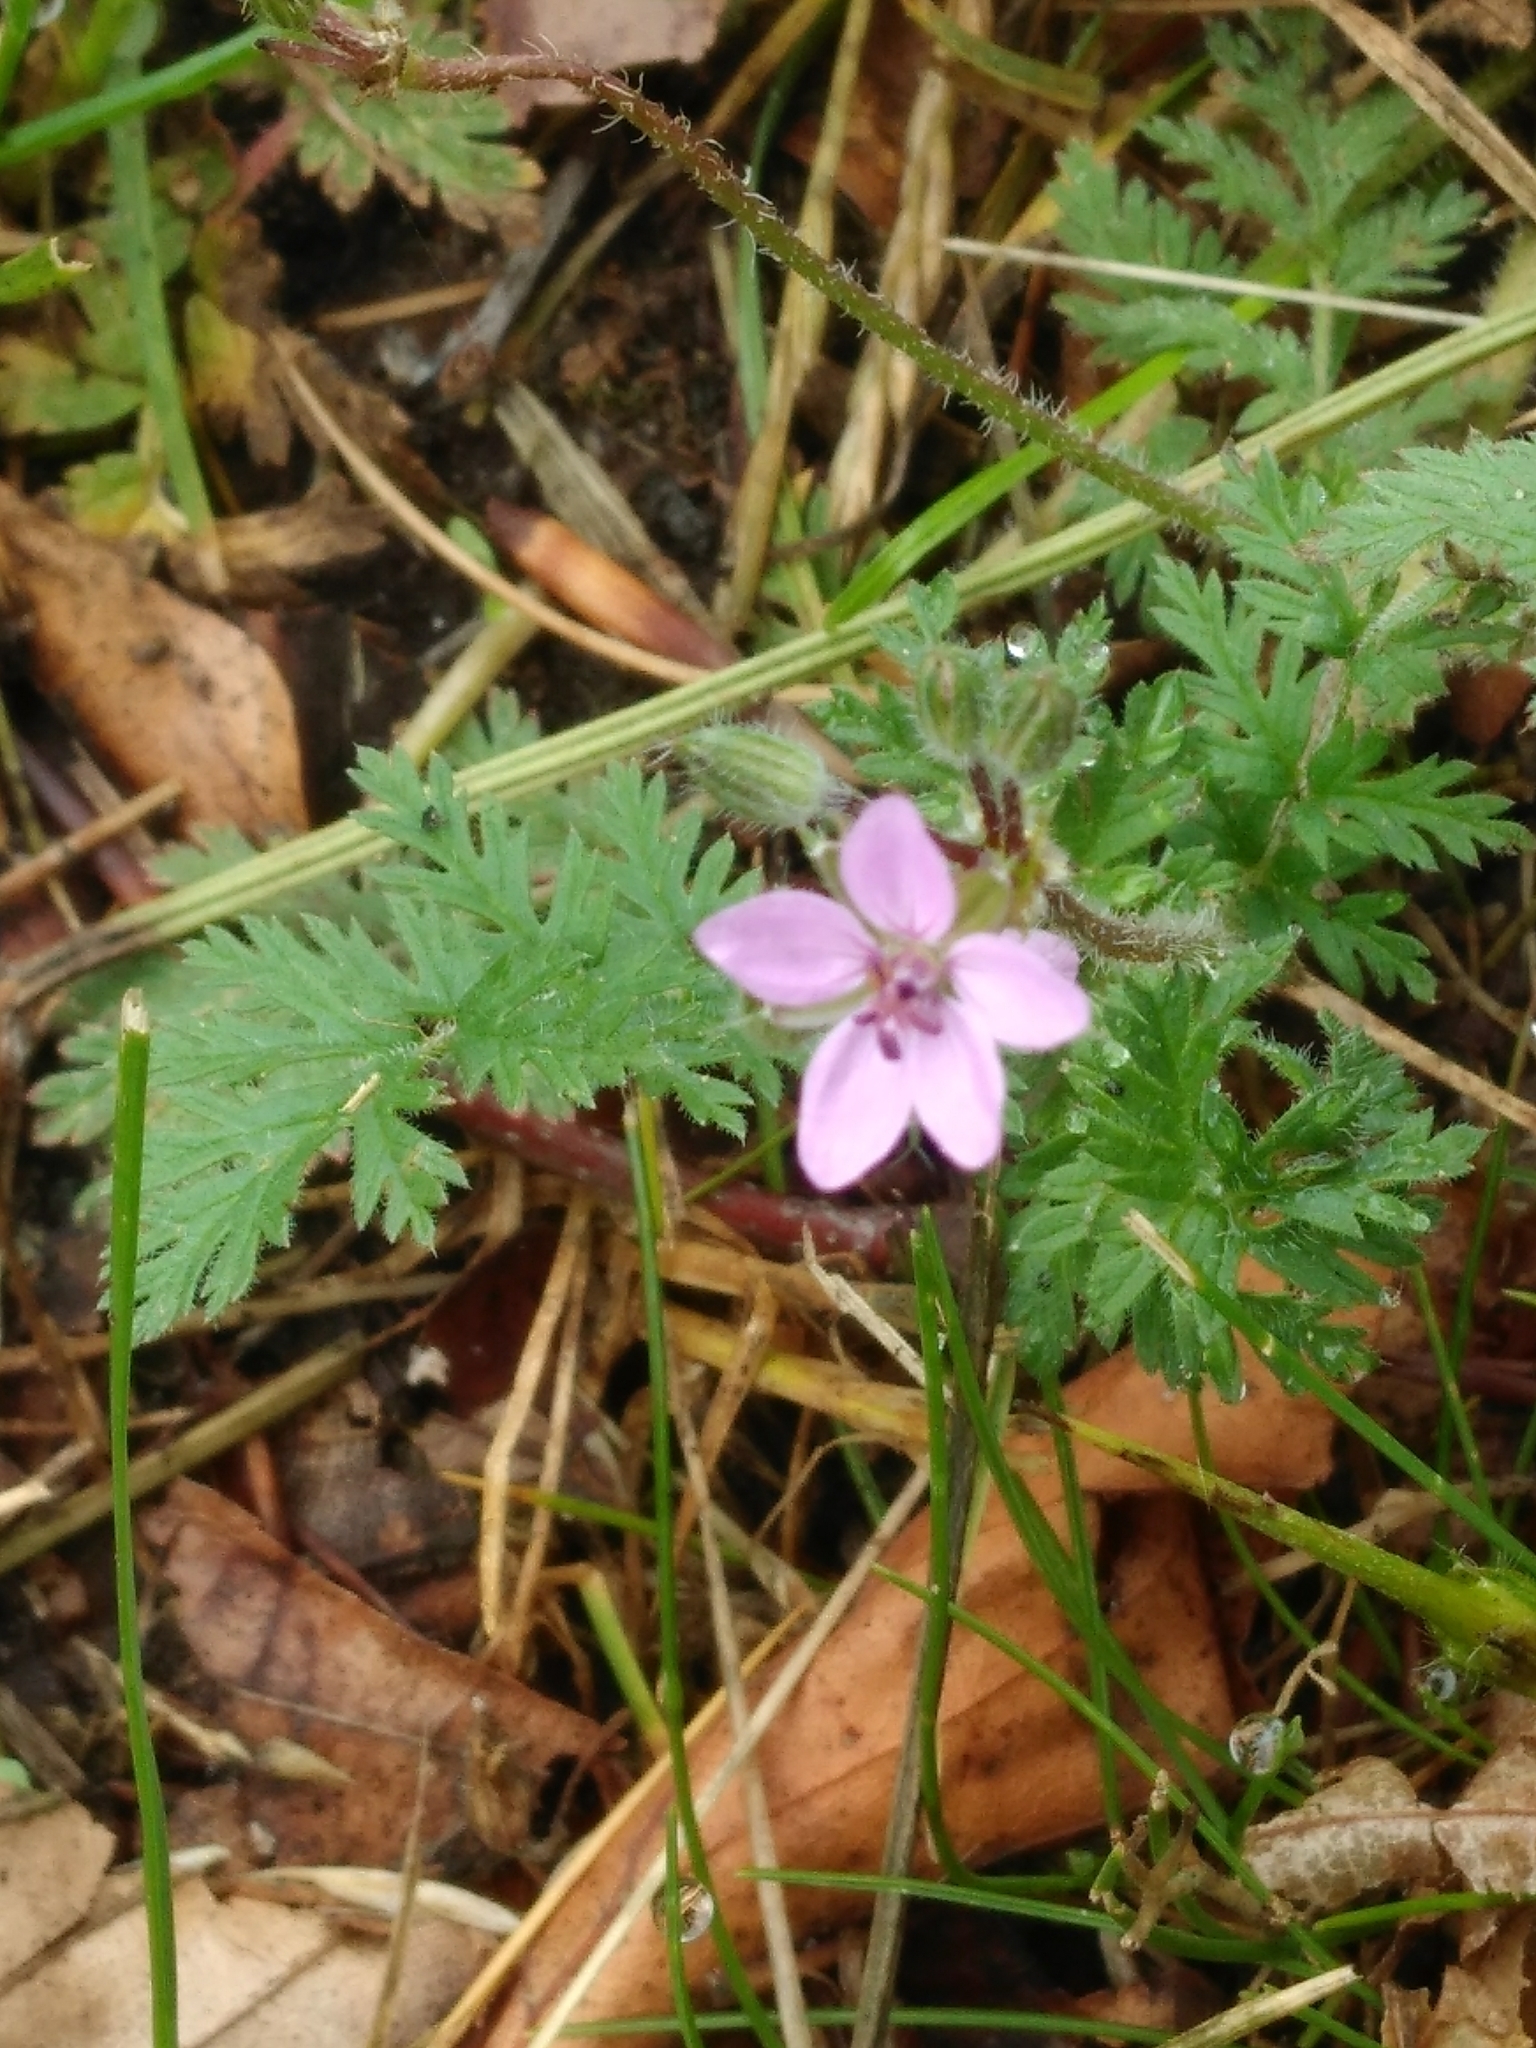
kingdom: Plantae
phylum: Tracheophyta
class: Magnoliopsida
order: Geraniales
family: Geraniaceae
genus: Erodium
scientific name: Erodium cicutarium
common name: Common stork's-bill
